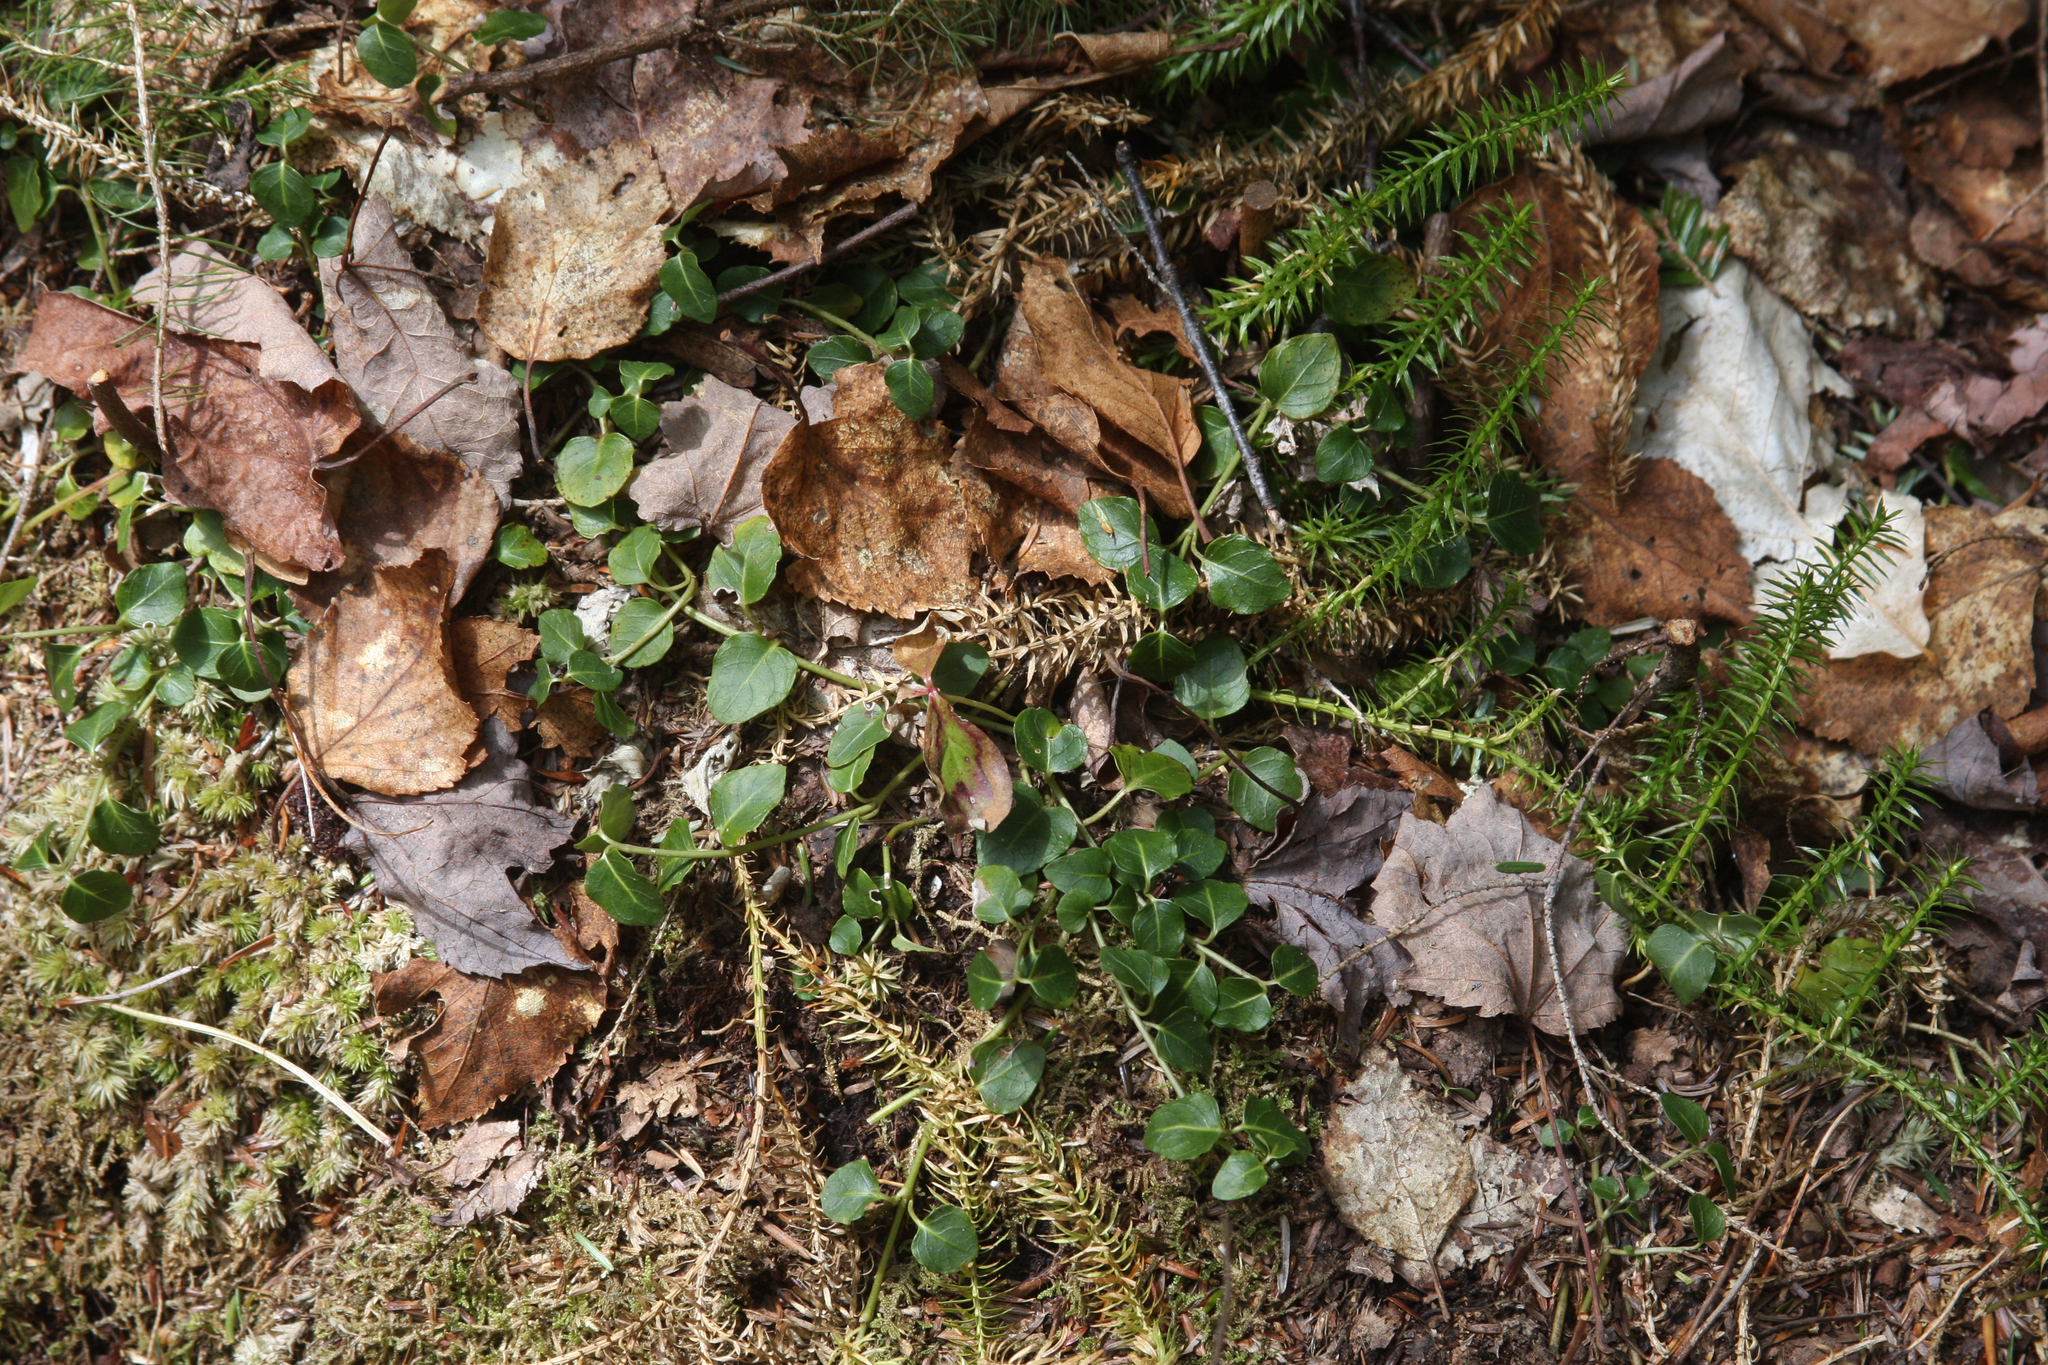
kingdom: Plantae
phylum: Tracheophyta
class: Magnoliopsida
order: Gentianales
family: Rubiaceae
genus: Mitchella
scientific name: Mitchella repens
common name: Partridge-berry
